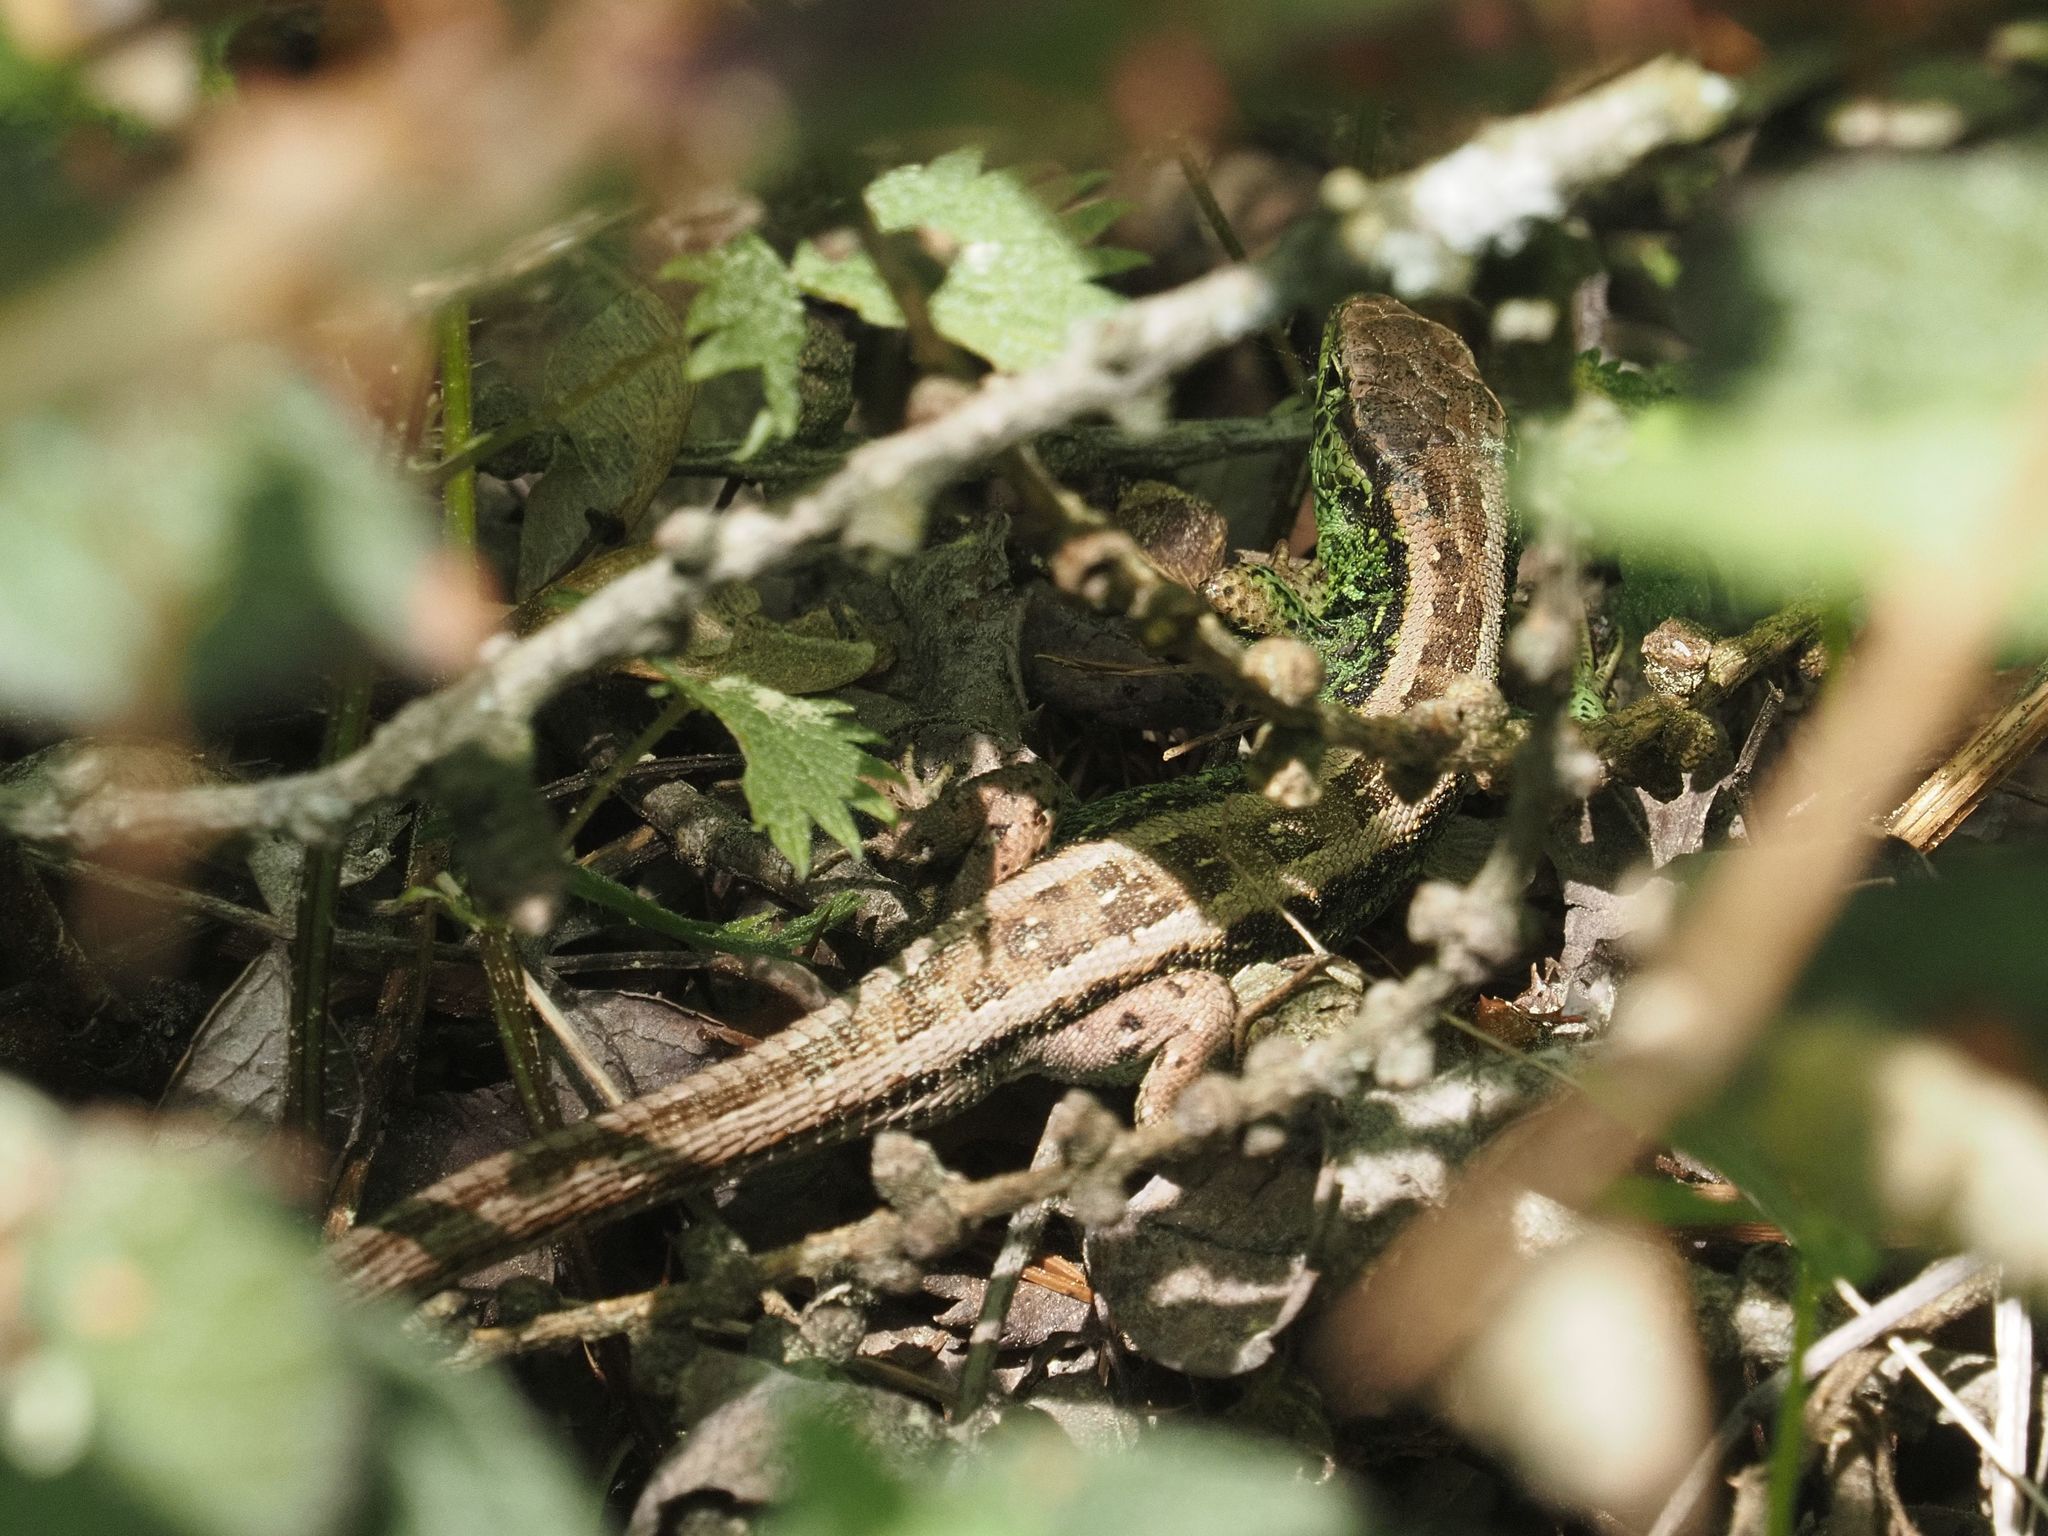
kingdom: Animalia
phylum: Chordata
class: Squamata
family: Lacertidae
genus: Lacerta
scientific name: Lacerta agilis
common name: Sand lizard
